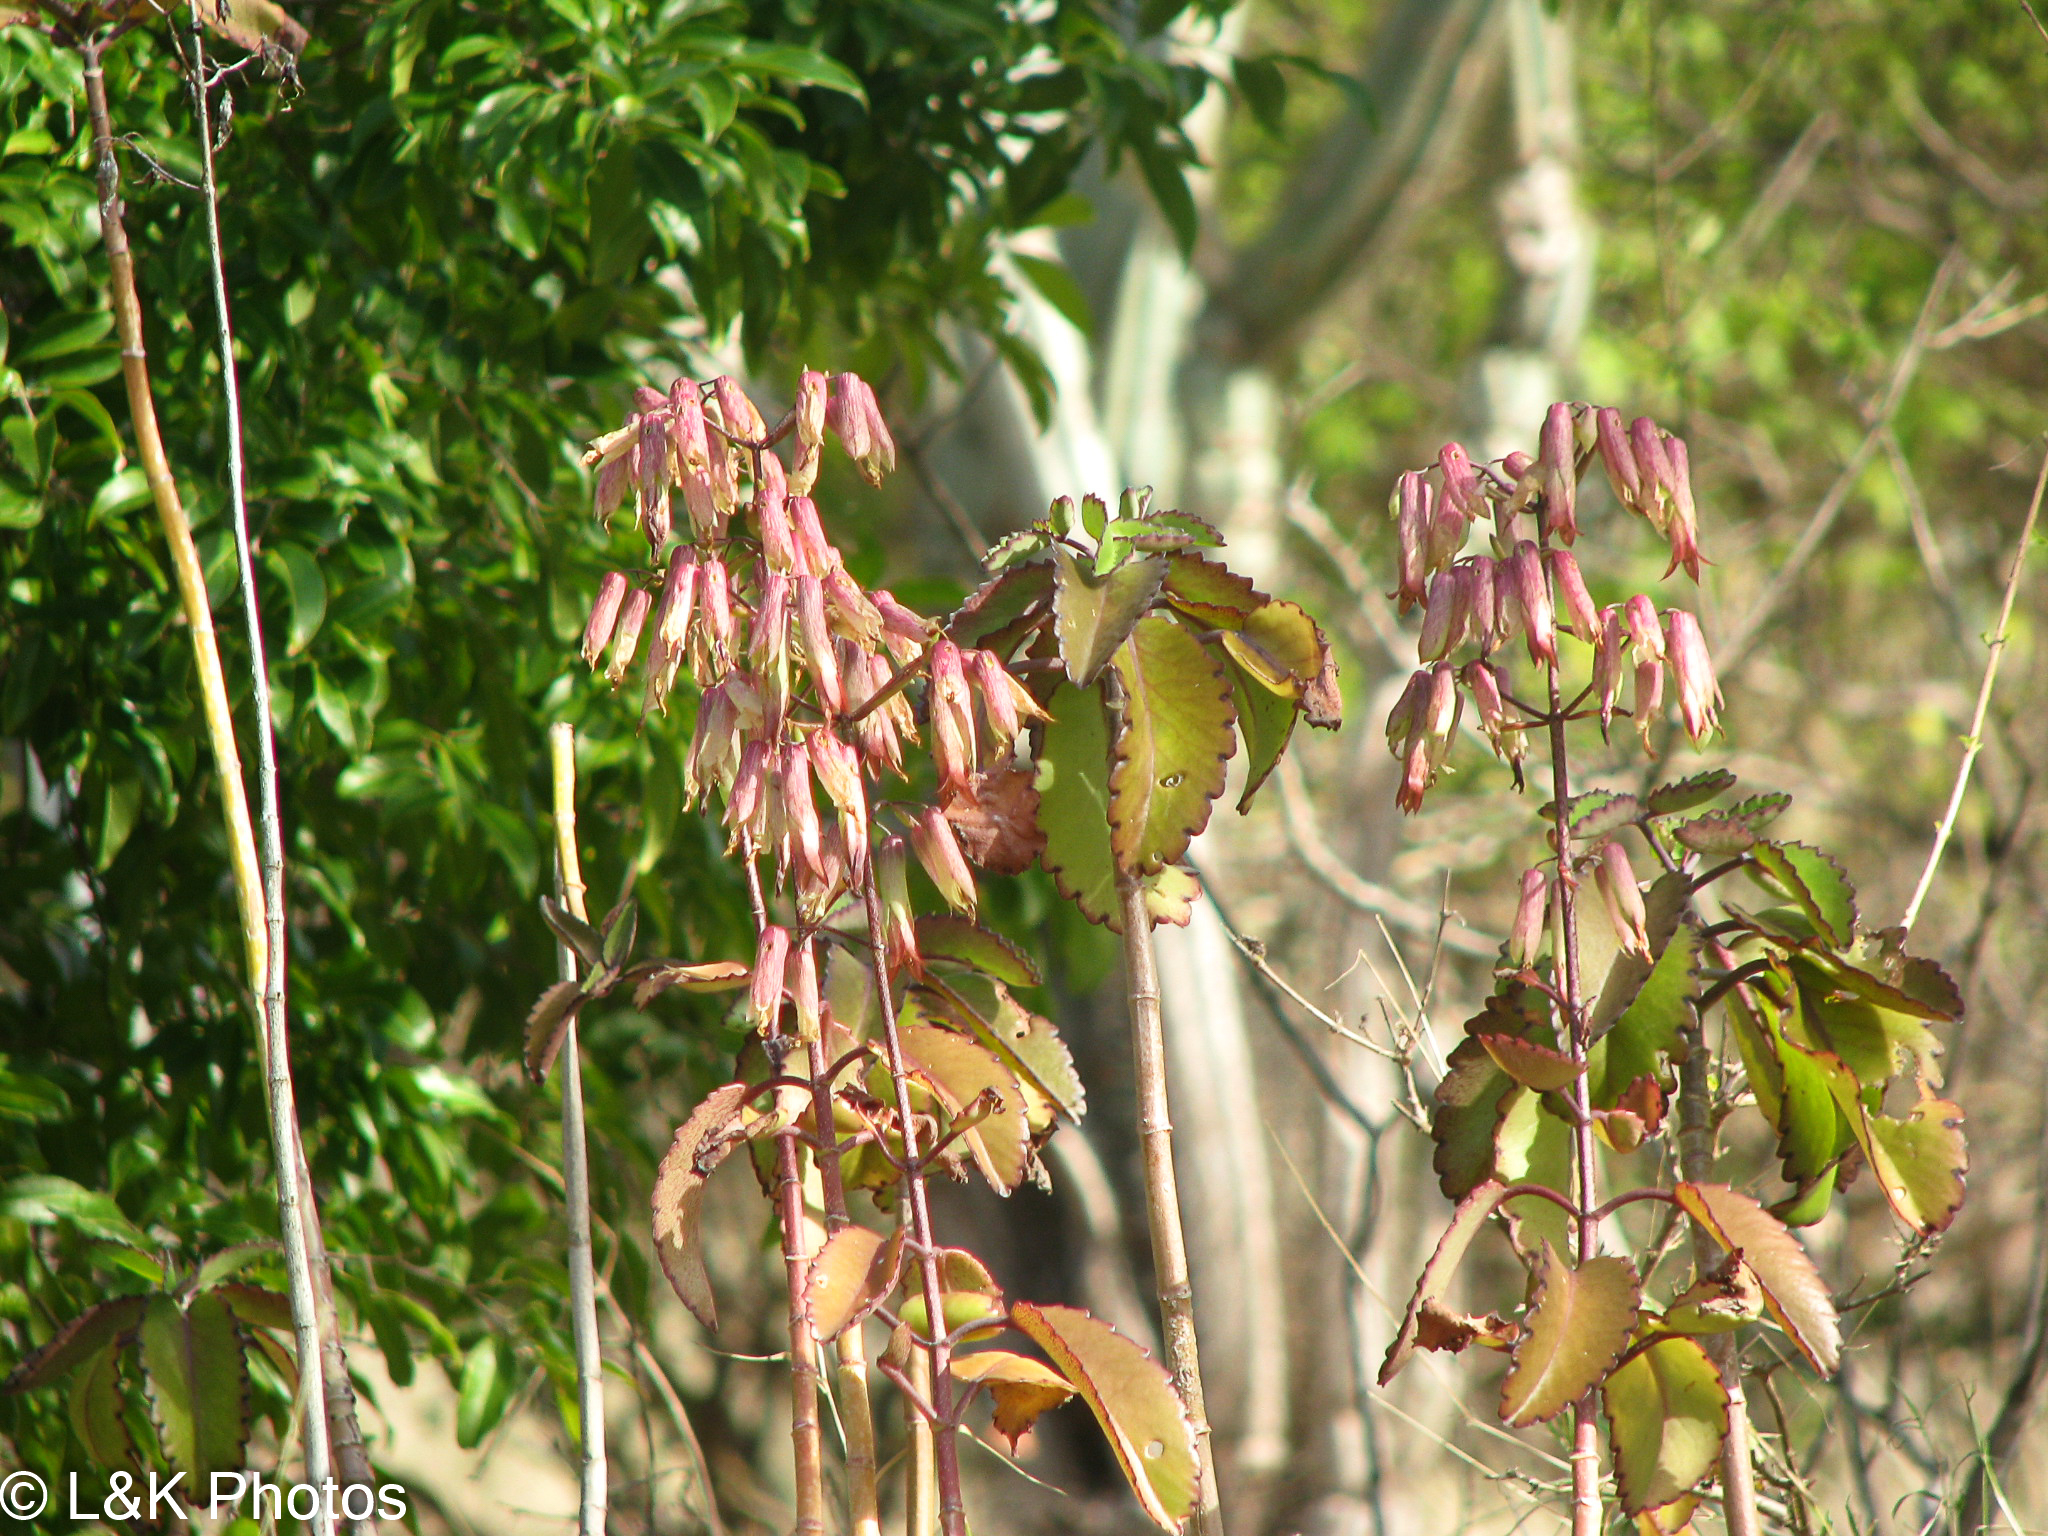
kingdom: Plantae
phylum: Tracheophyta
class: Magnoliopsida
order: Saxifragales
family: Crassulaceae
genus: Kalanchoe
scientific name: Kalanchoe pinnata
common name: Cathedral bells
